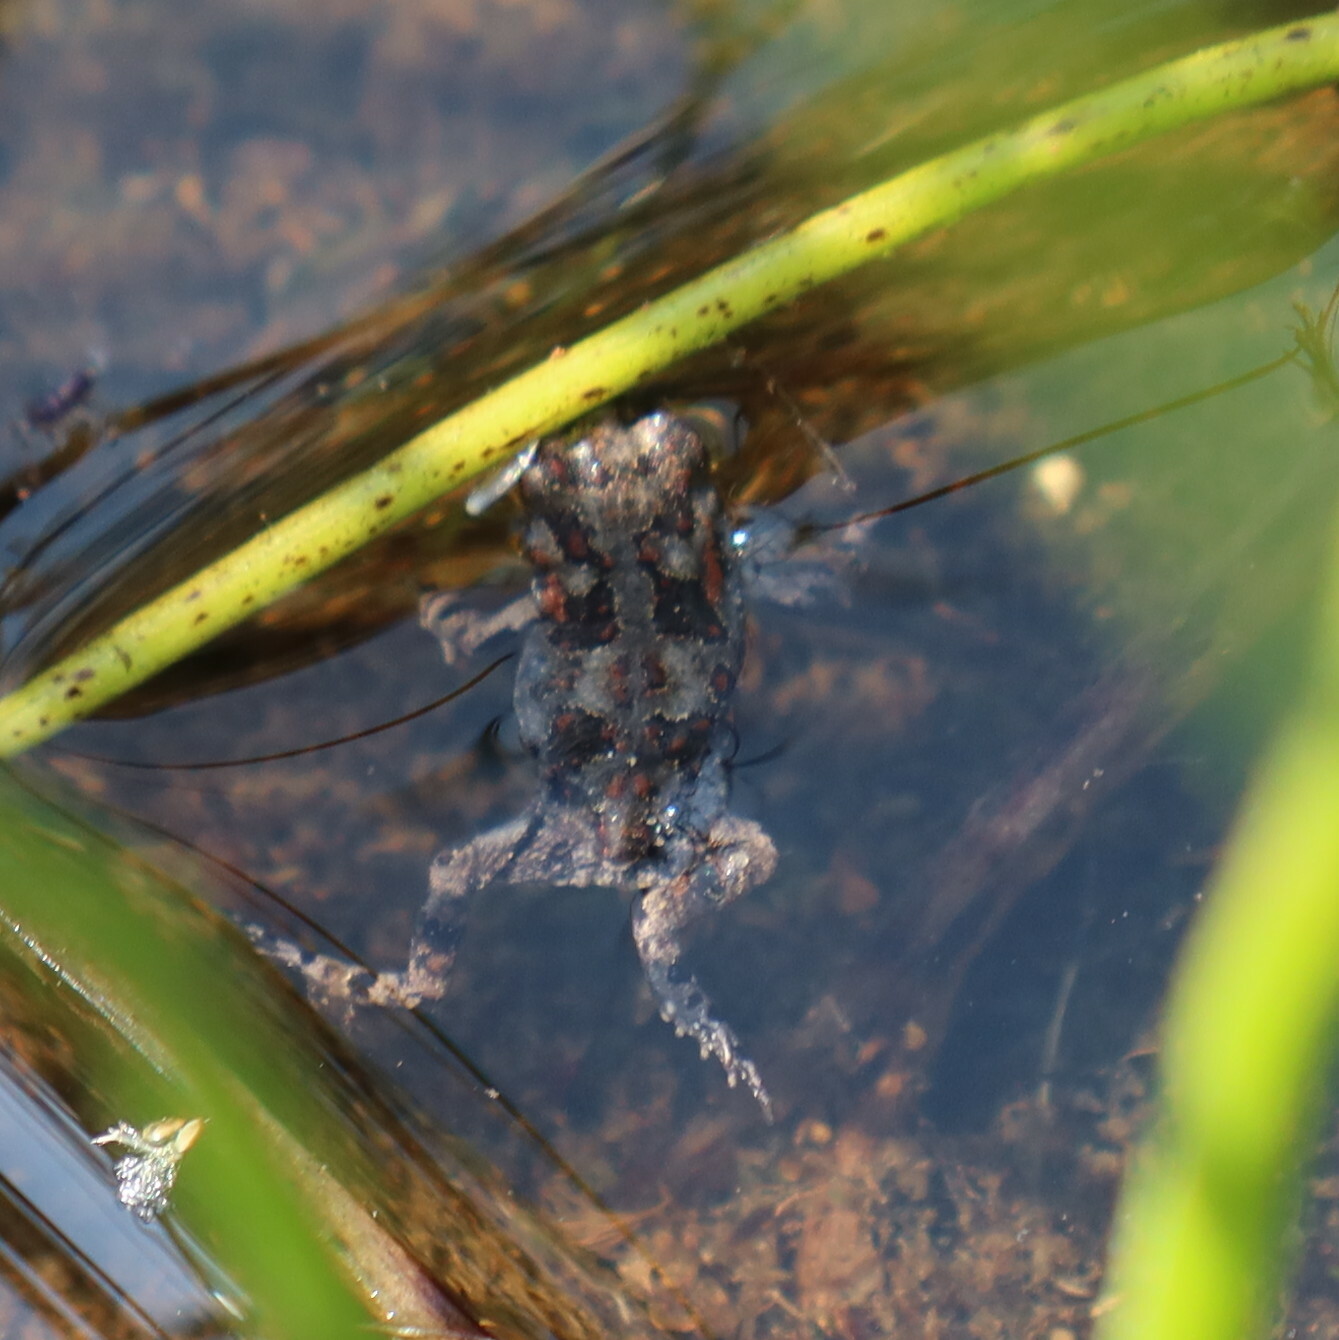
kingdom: Animalia
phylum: Chordata
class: Amphibia
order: Anura
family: Bufonidae
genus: Vandijkophrynus
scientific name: Vandijkophrynus angusticeps
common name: Sand toad
